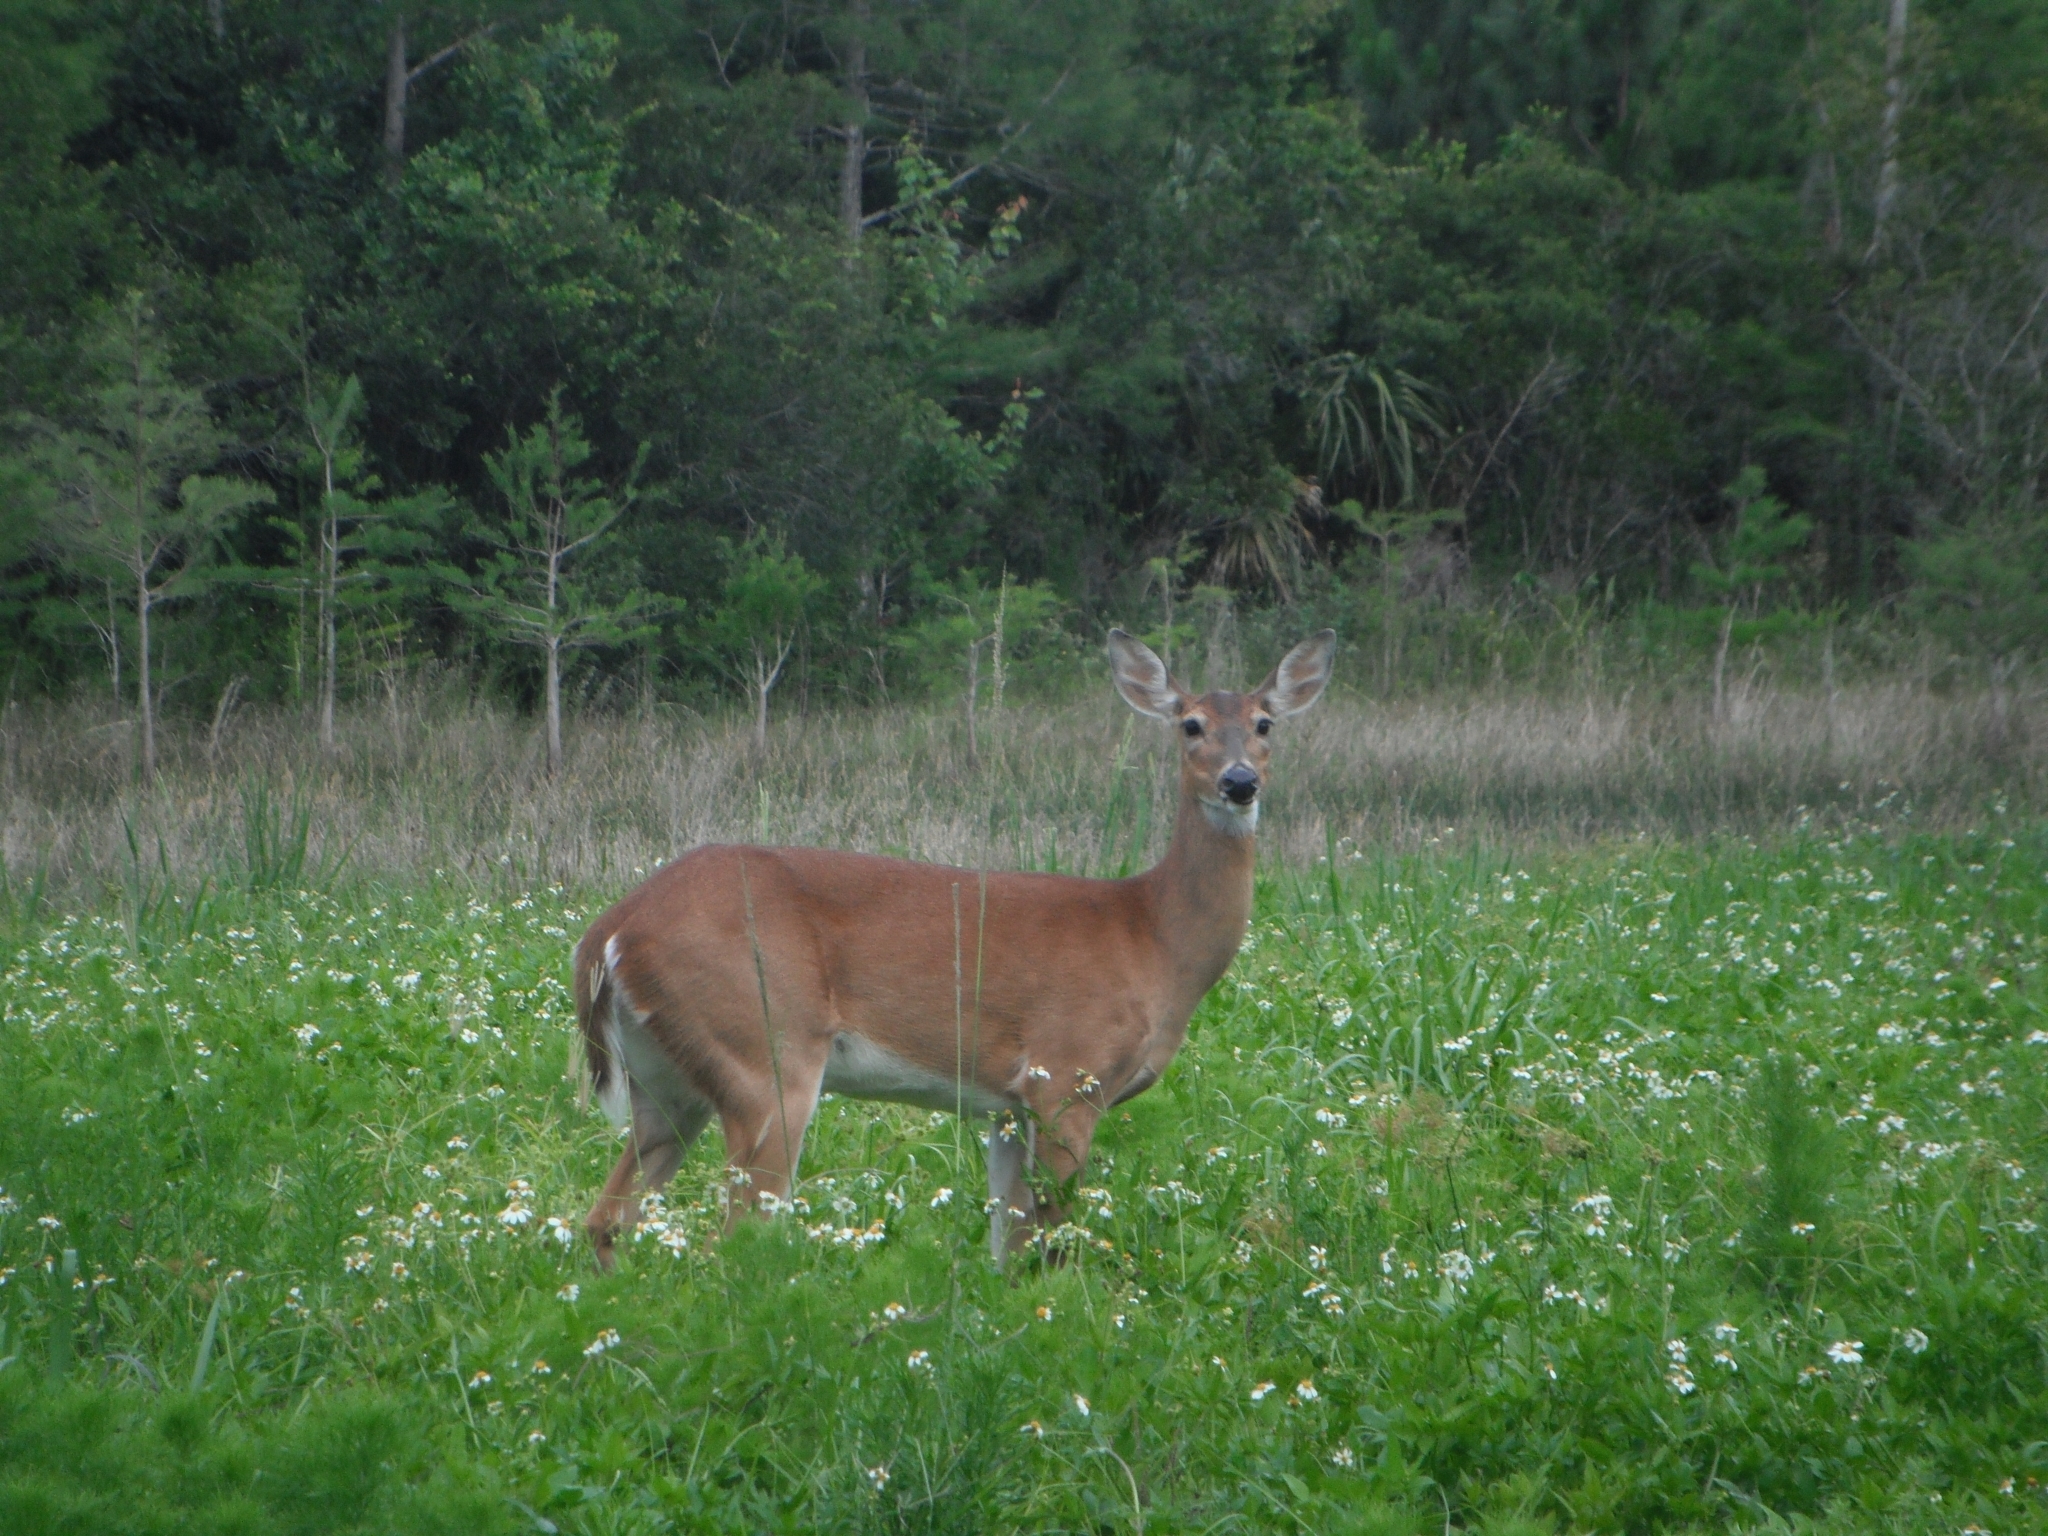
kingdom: Animalia
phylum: Chordata
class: Mammalia
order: Artiodactyla
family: Cervidae
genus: Odocoileus
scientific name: Odocoileus virginianus
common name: White-tailed deer
